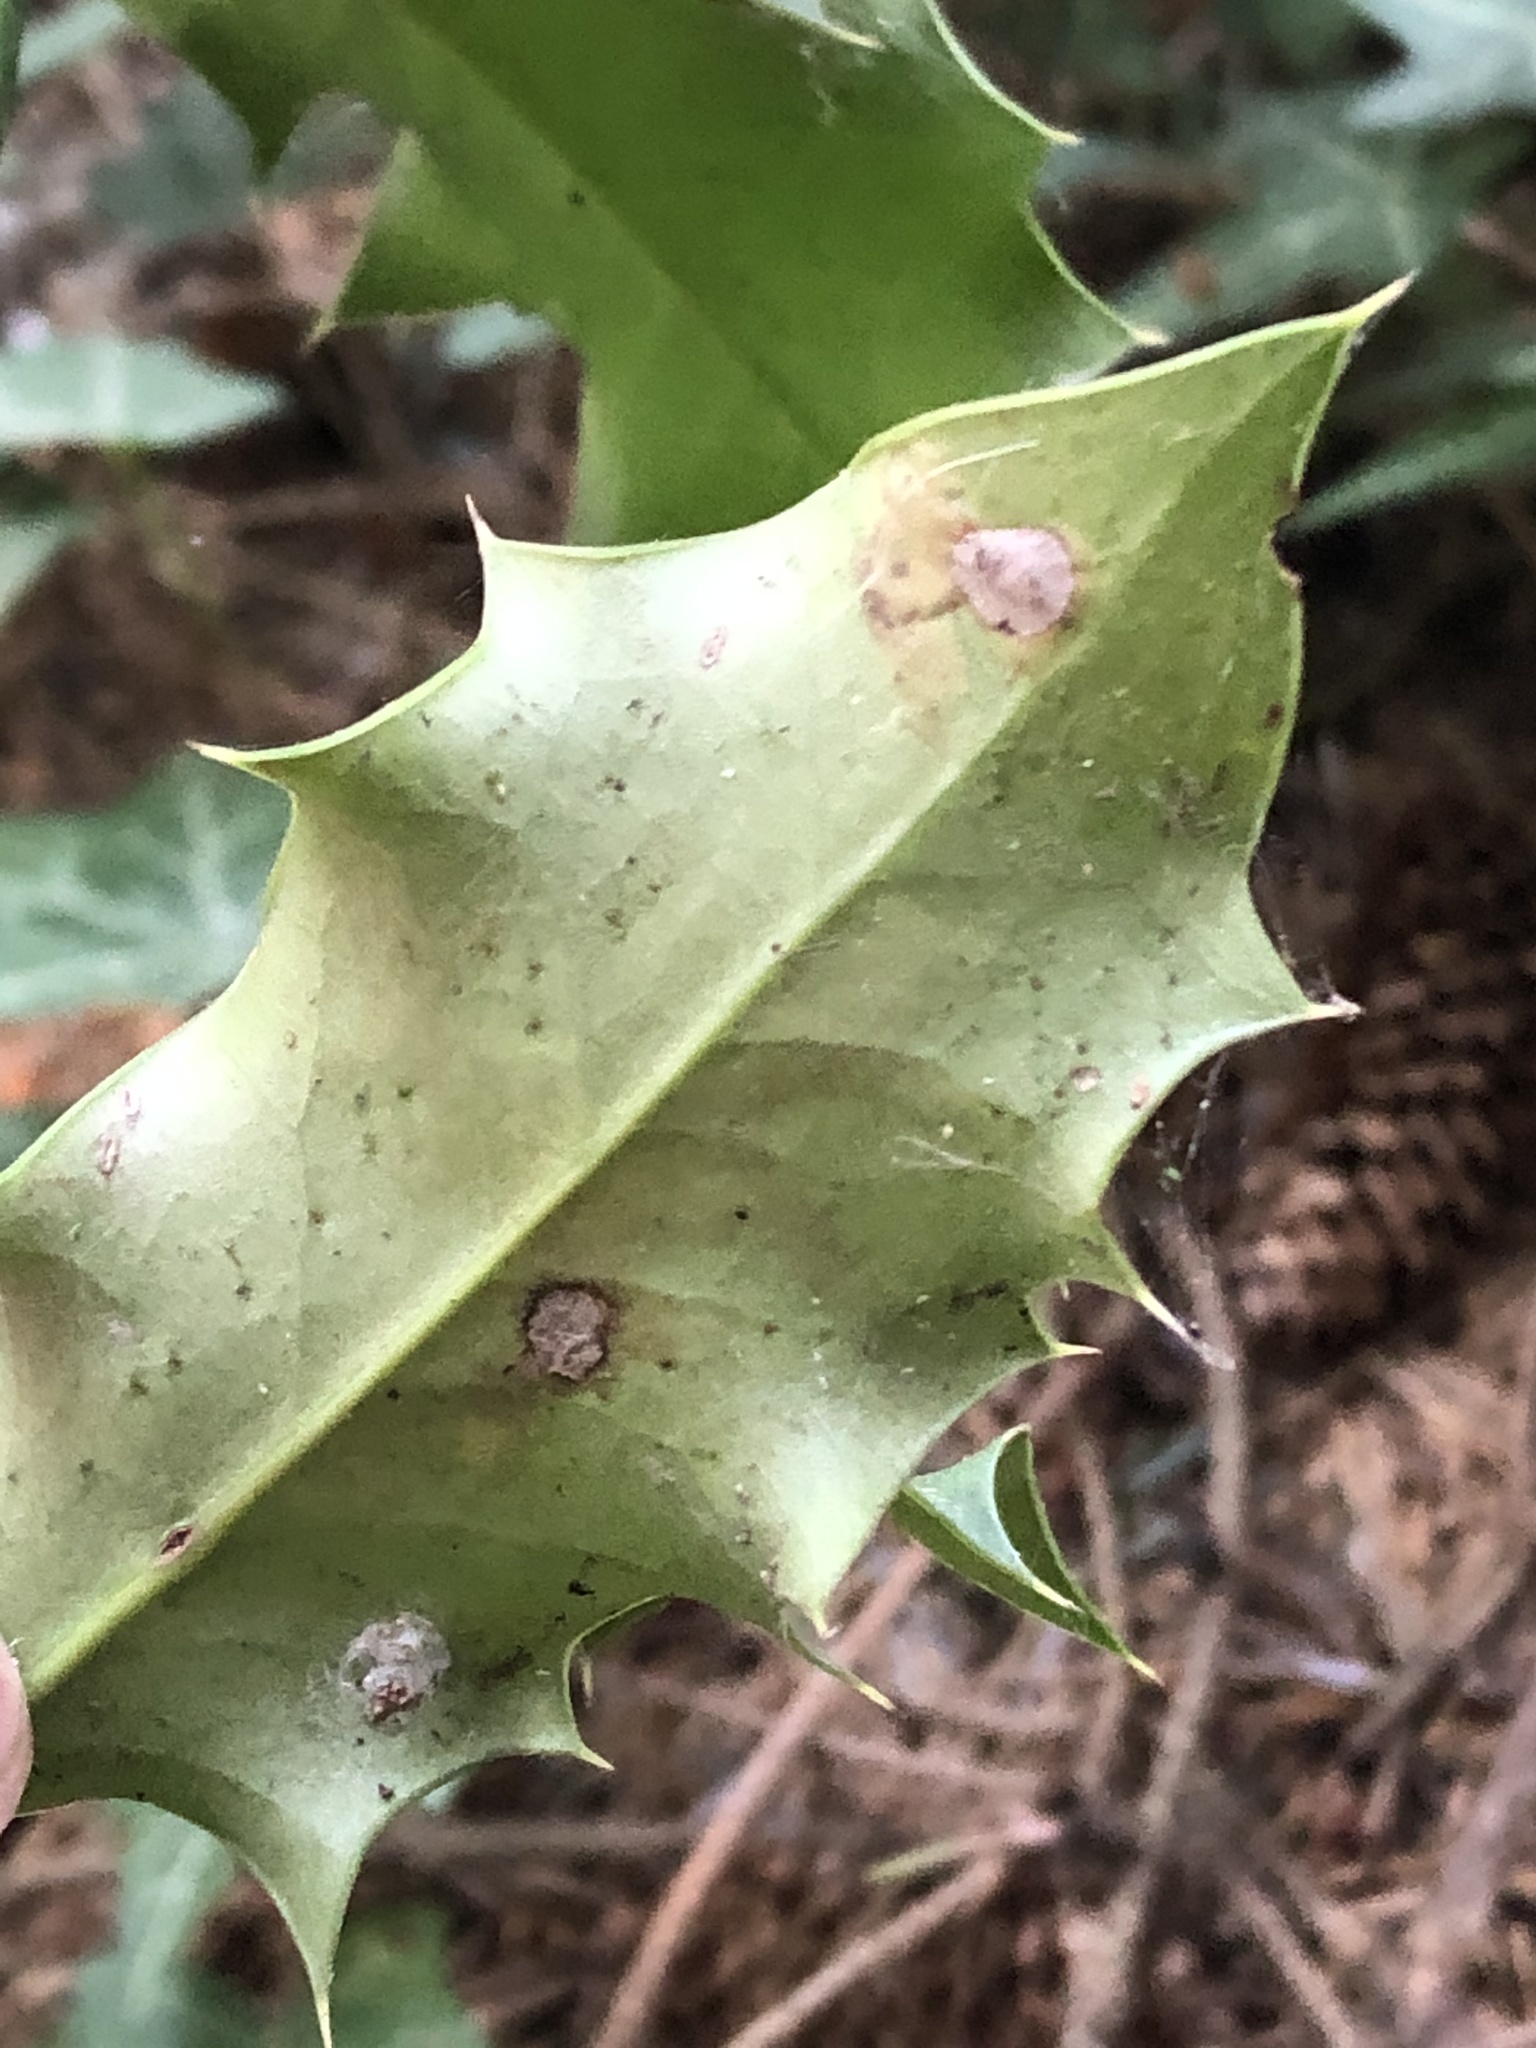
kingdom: Animalia
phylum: Arthropoda
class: Insecta
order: Diptera
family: Agromyzidae
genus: Phytomyza
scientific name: Phytomyza ilicis
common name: Holly leafminer
